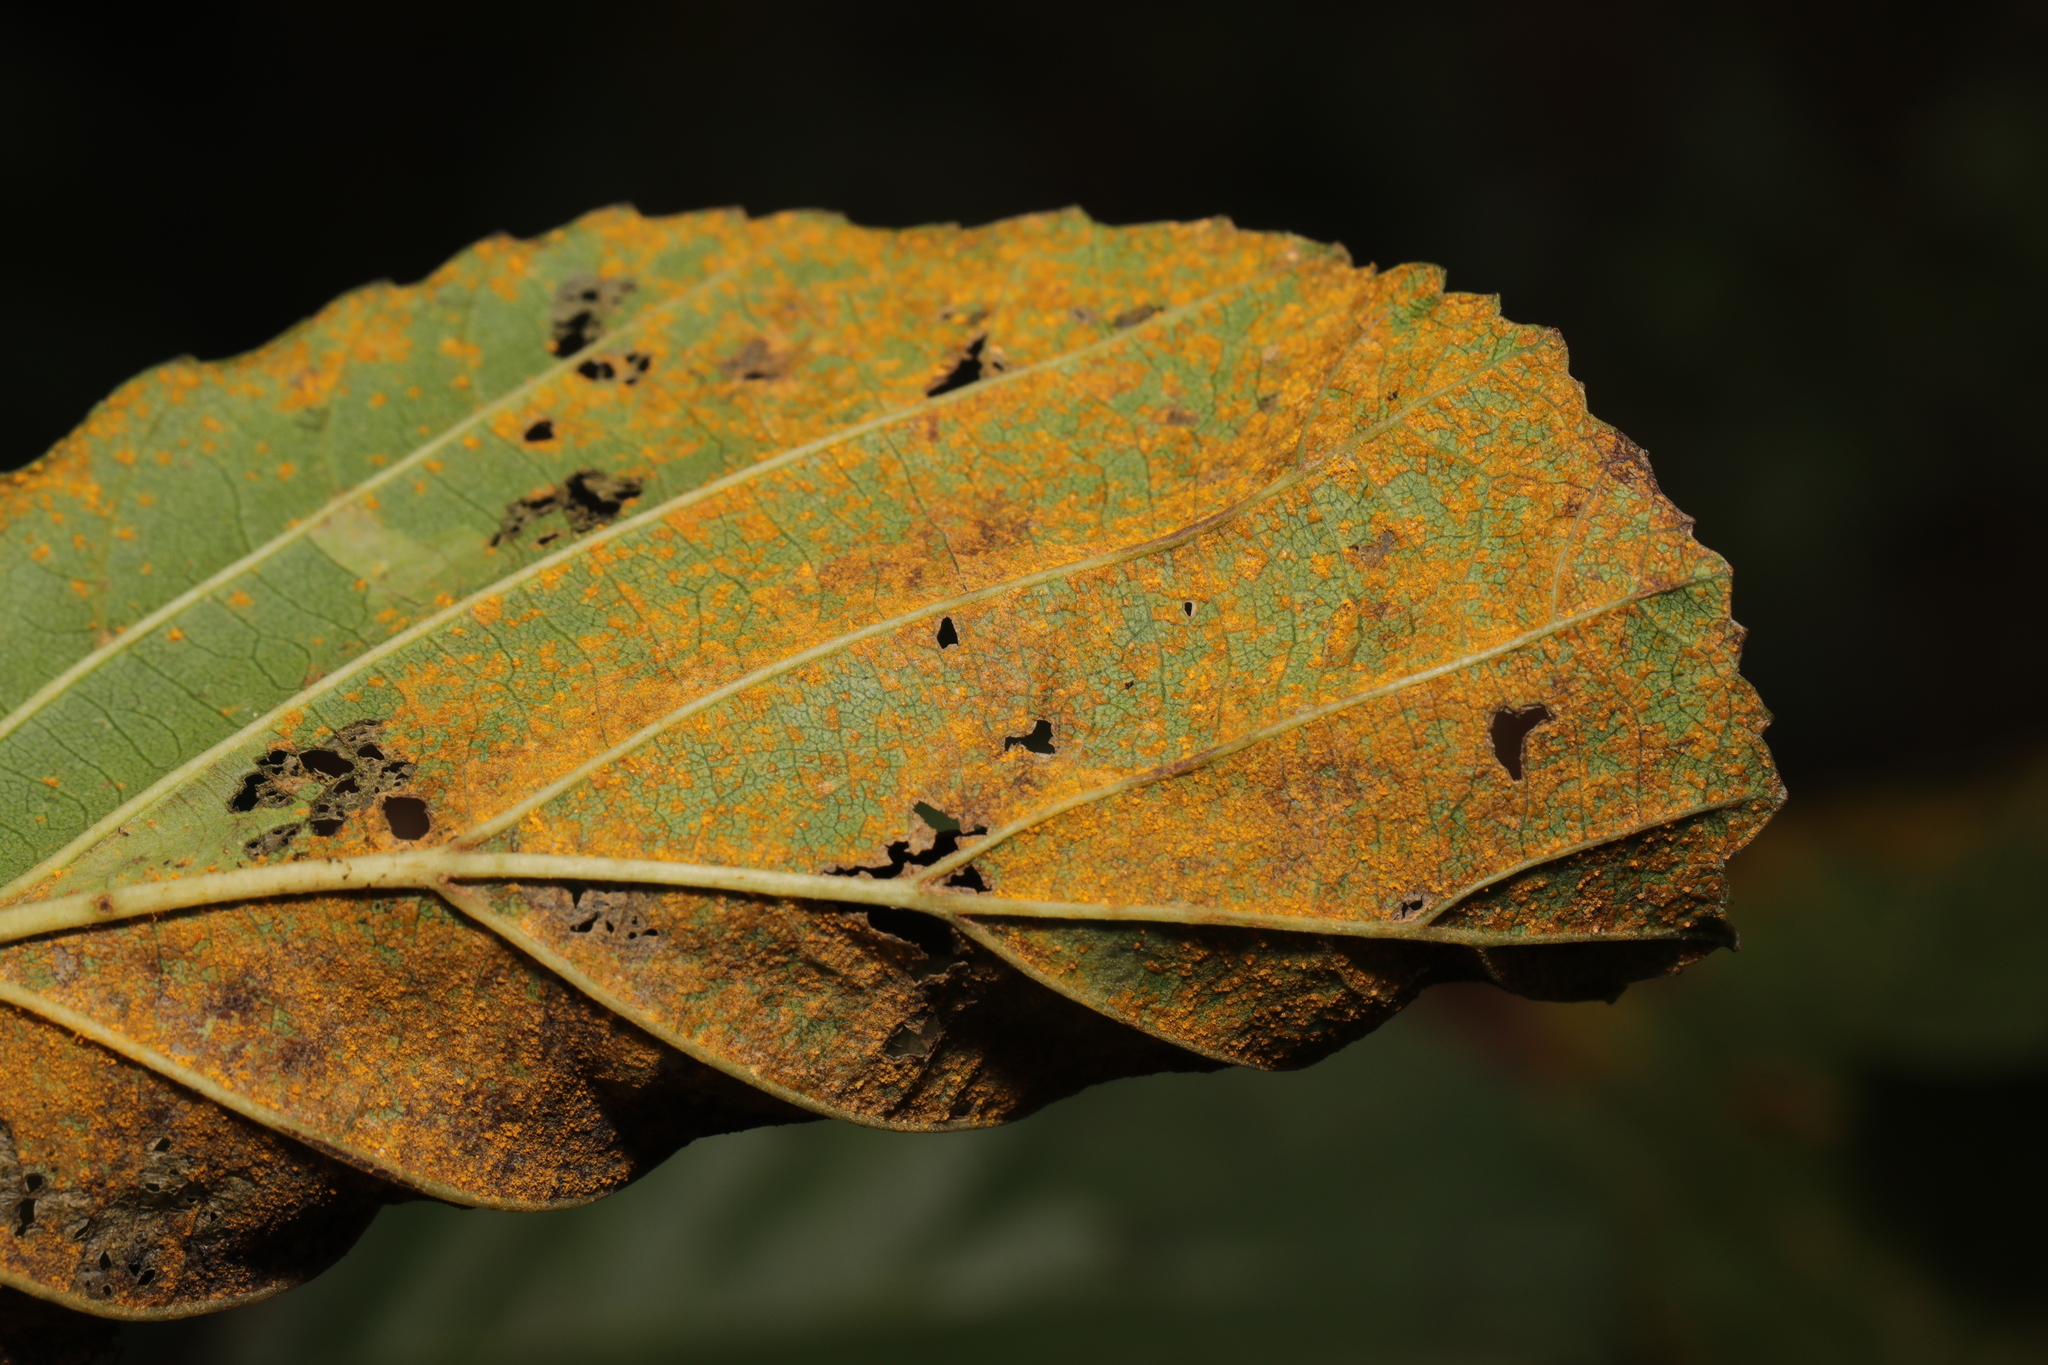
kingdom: Fungi
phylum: Basidiomycota
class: Pucciniomycetes
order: Pucciniales
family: Pucciniastraceae
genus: Melampsoridium
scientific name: Melampsoridium hiratsukanum
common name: Alder rust
